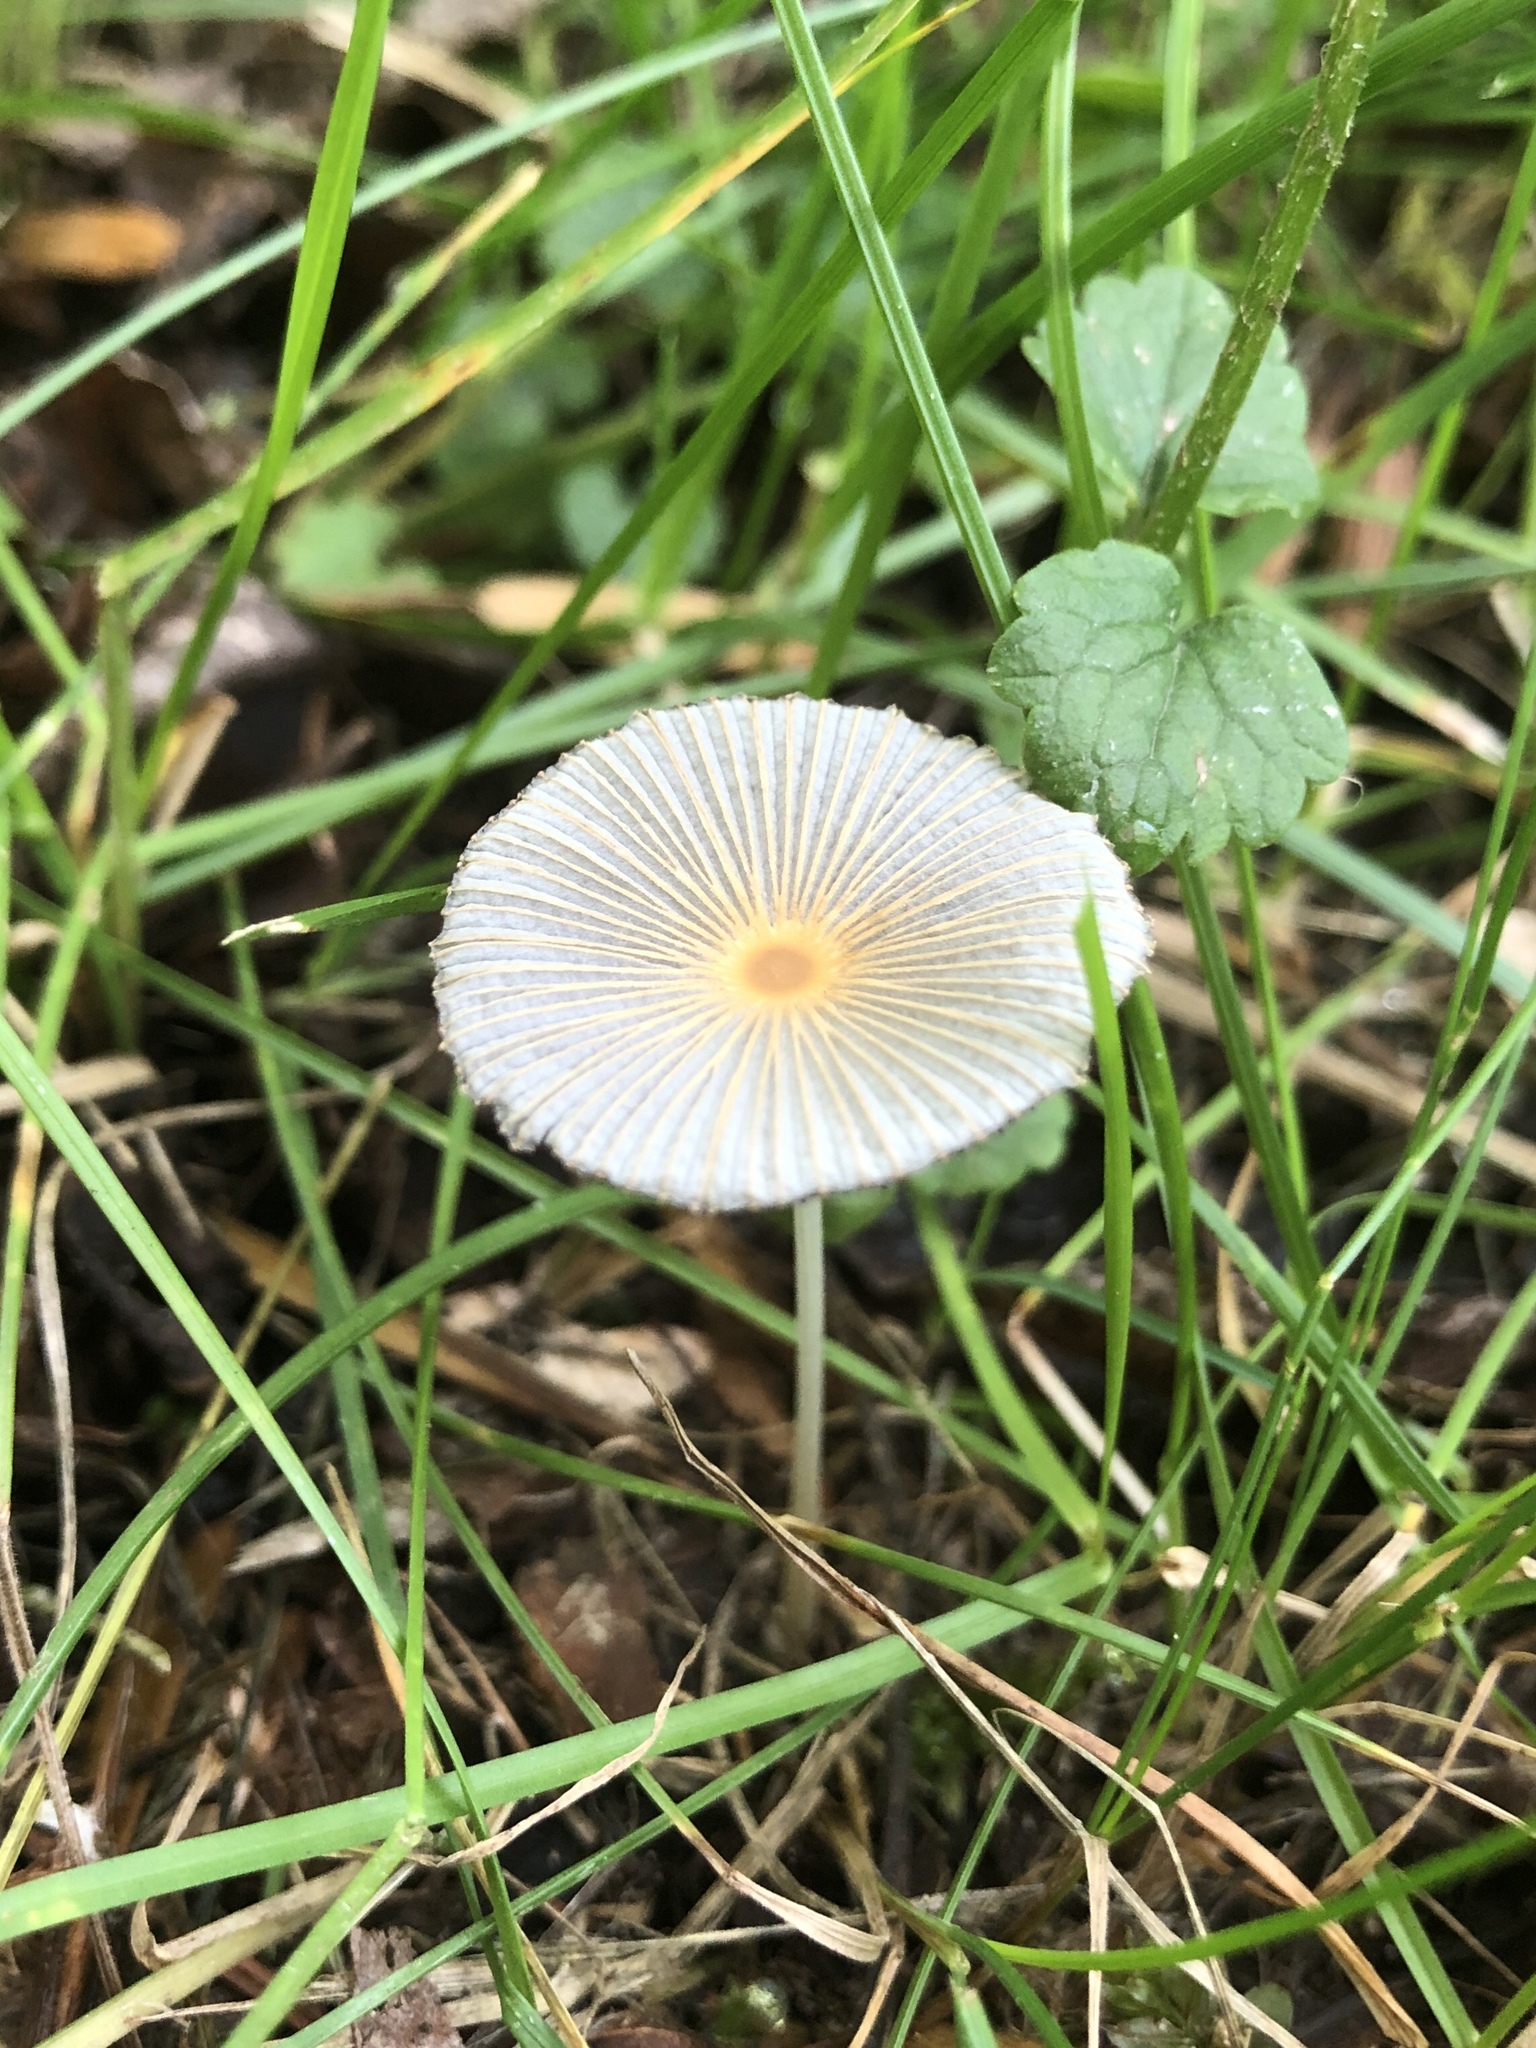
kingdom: Fungi
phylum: Basidiomycota
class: Agaricomycetes
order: Agaricales
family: Psathyrellaceae
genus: Parasola
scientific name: Parasola plicatilis
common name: Pleated inkcap
